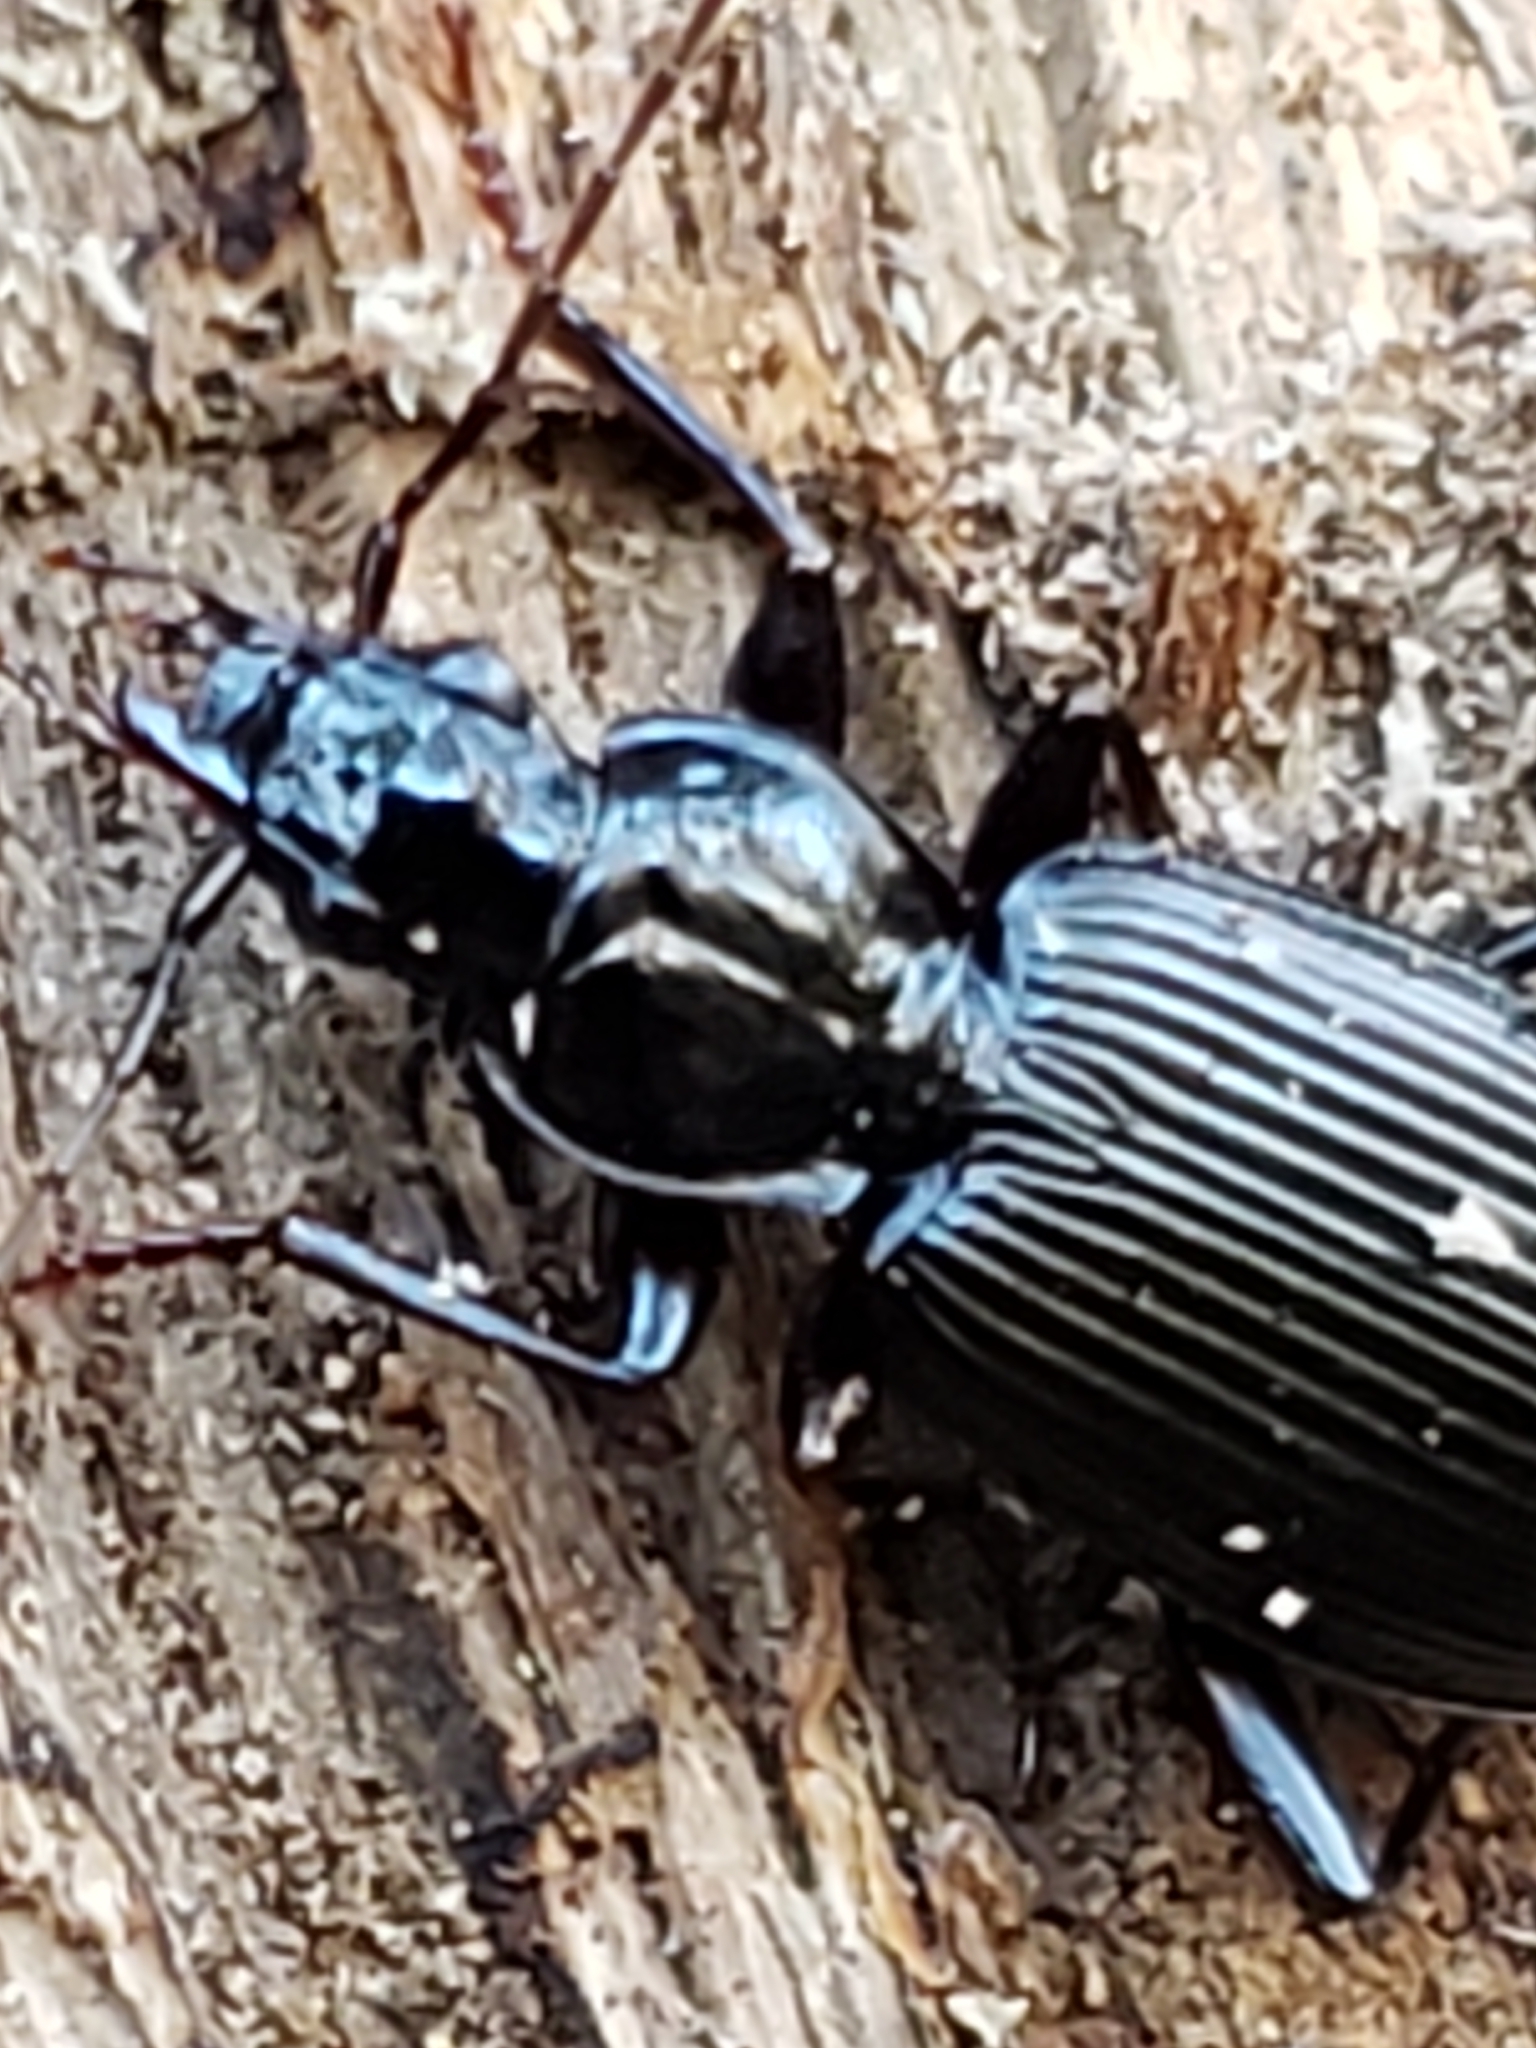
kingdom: Animalia
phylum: Arthropoda
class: Insecta
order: Coleoptera
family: Carabidae
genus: Platynus
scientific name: Platynus decentis
